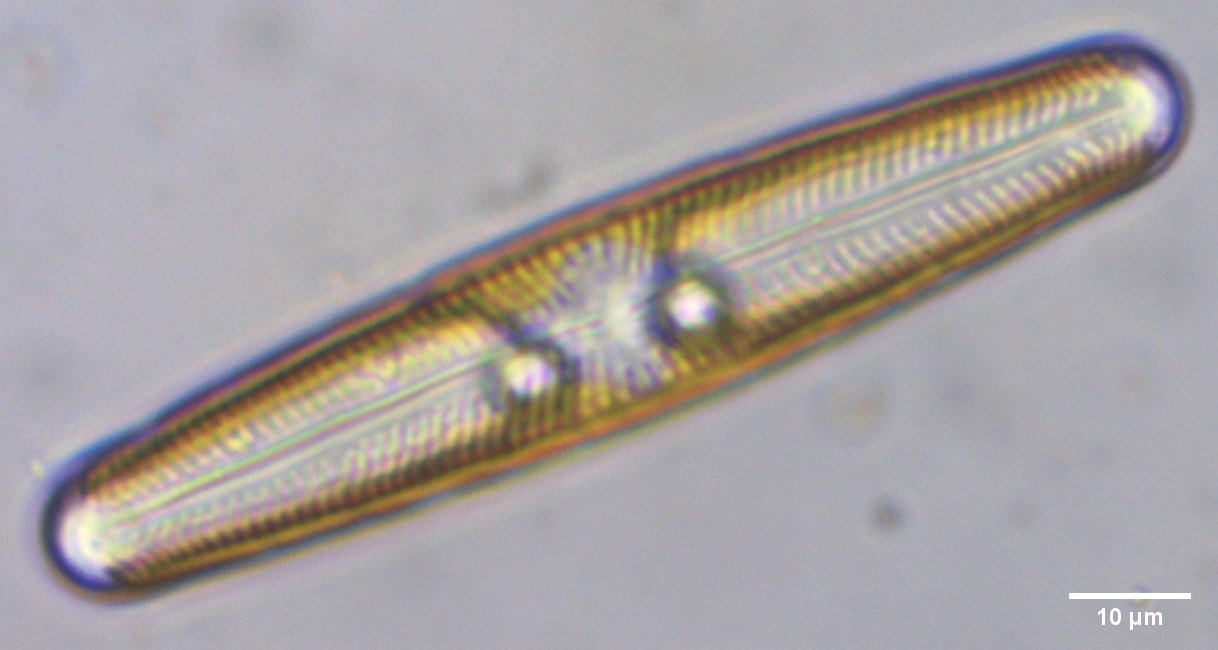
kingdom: Chromista
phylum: Ochrophyta
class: Bacillariophyceae
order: Naviculales
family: Naviculaceae
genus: Navicula
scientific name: Navicula oblonga
